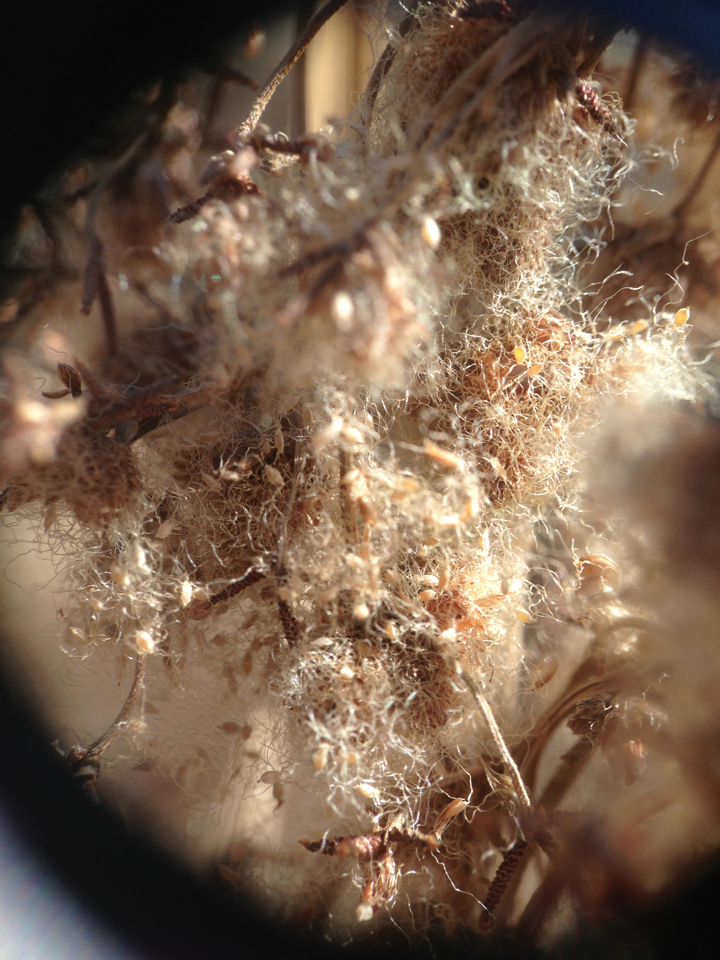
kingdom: Plantae
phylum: Tracheophyta
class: Liliopsida
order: Poales
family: Cyperaceae
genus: Scirpus
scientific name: Scirpus cyperinus
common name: Black-sheathed bulrush
